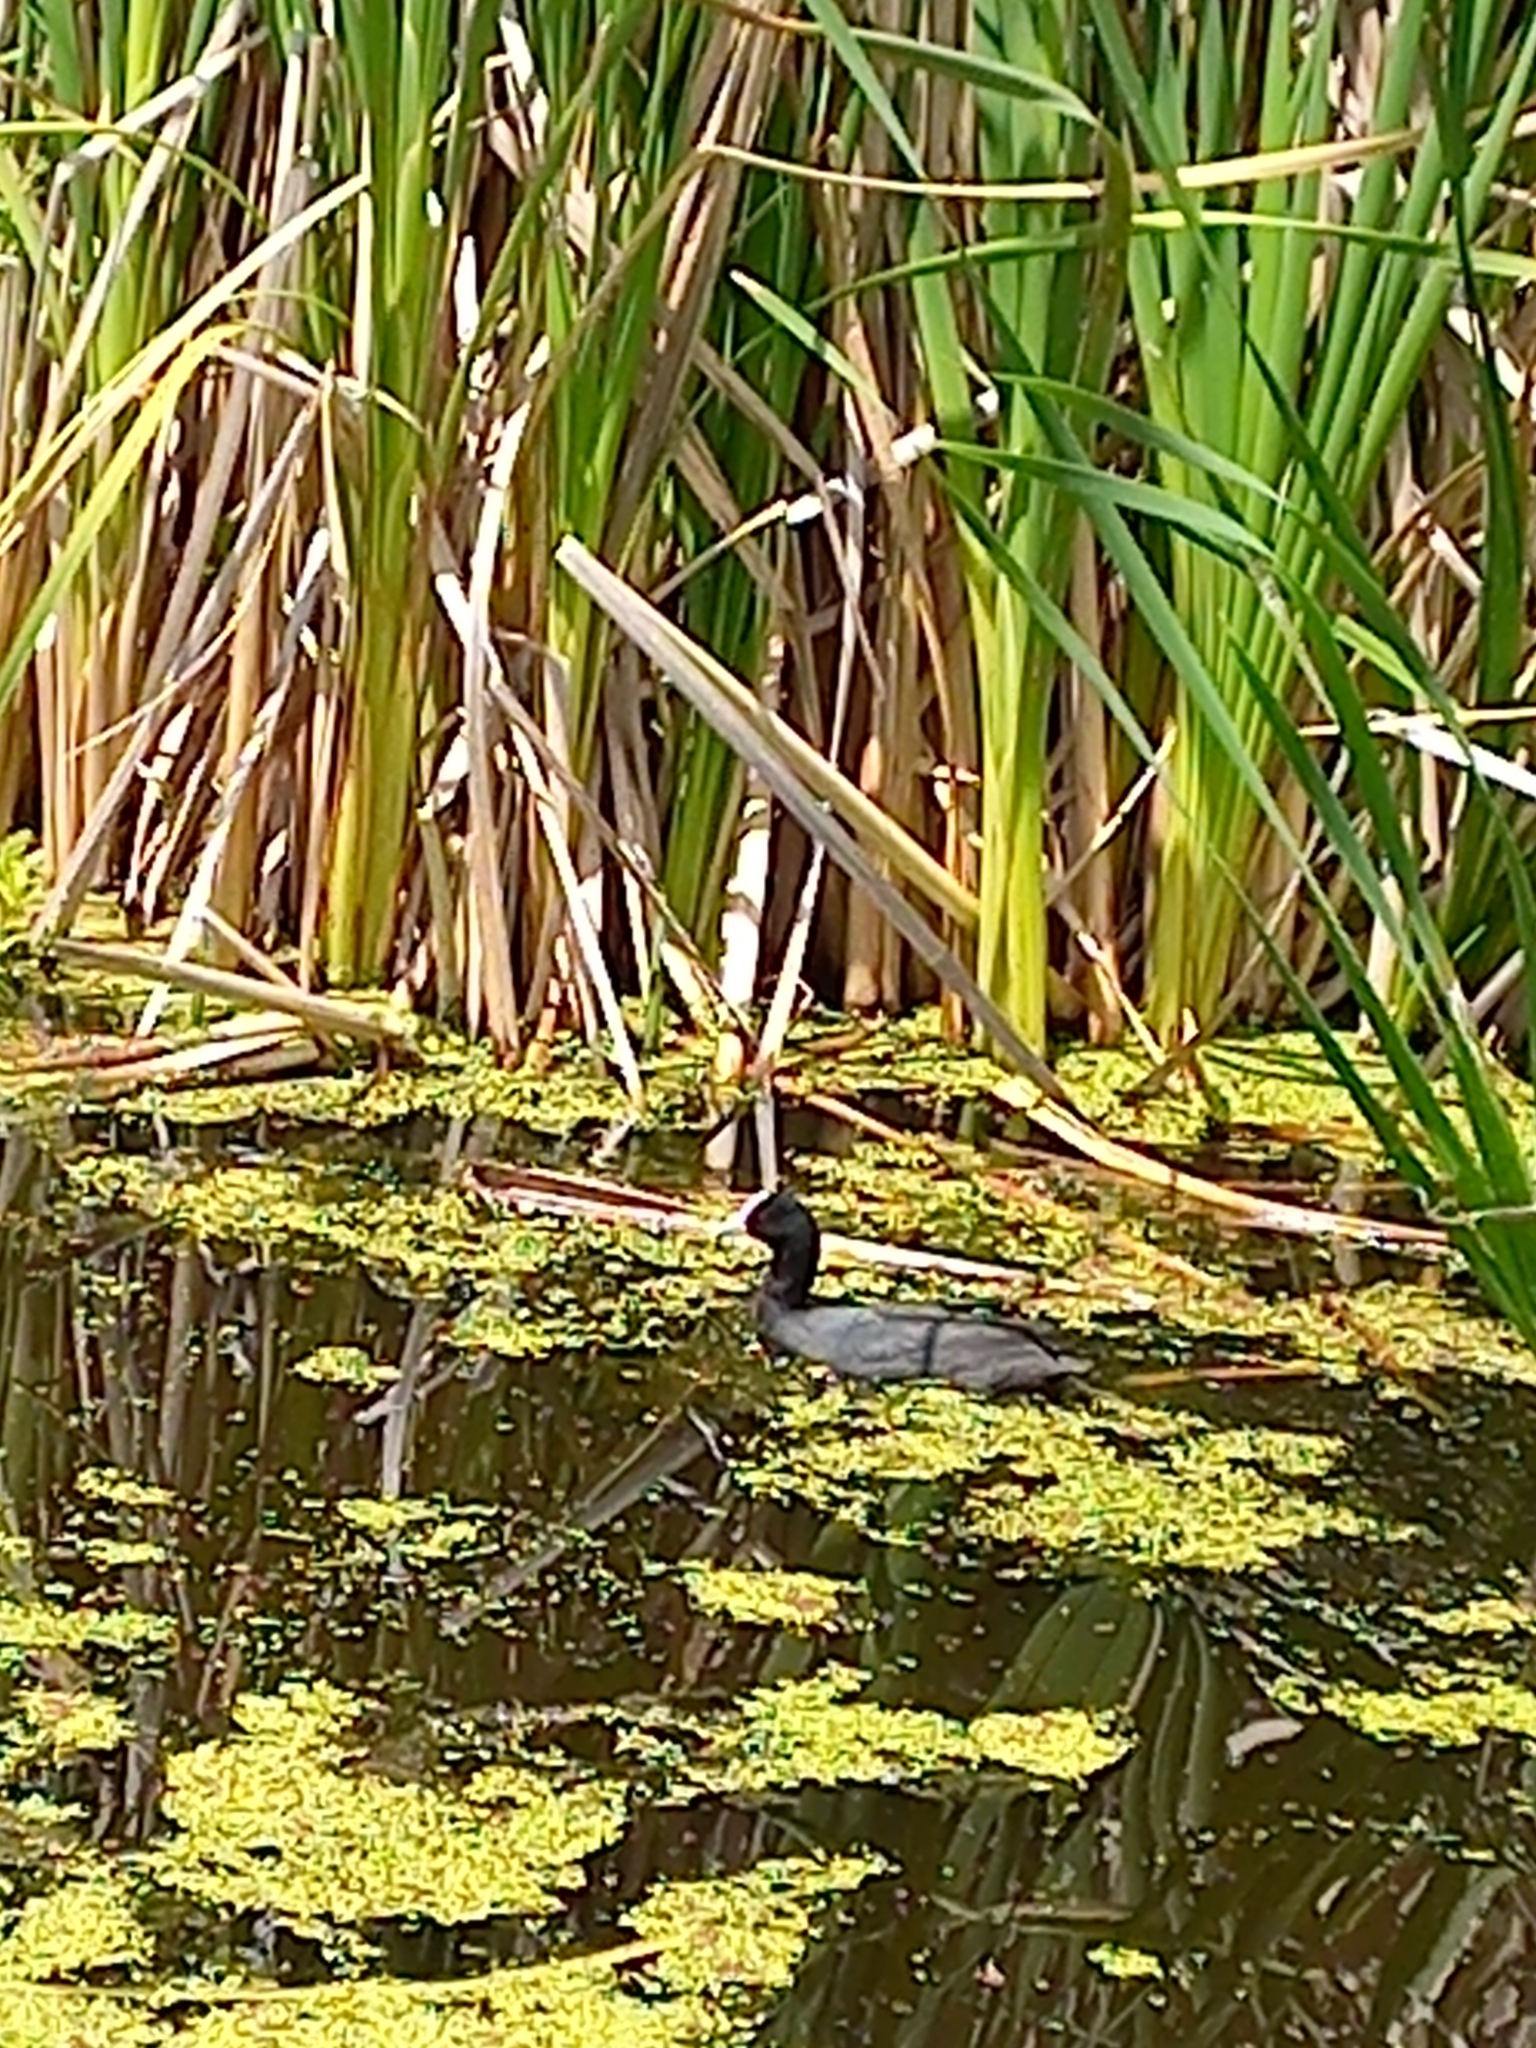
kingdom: Animalia
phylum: Chordata
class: Aves
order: Gruiformes
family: Rallidae
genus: Fulica
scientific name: Fulica atra
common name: Eurasian coot
